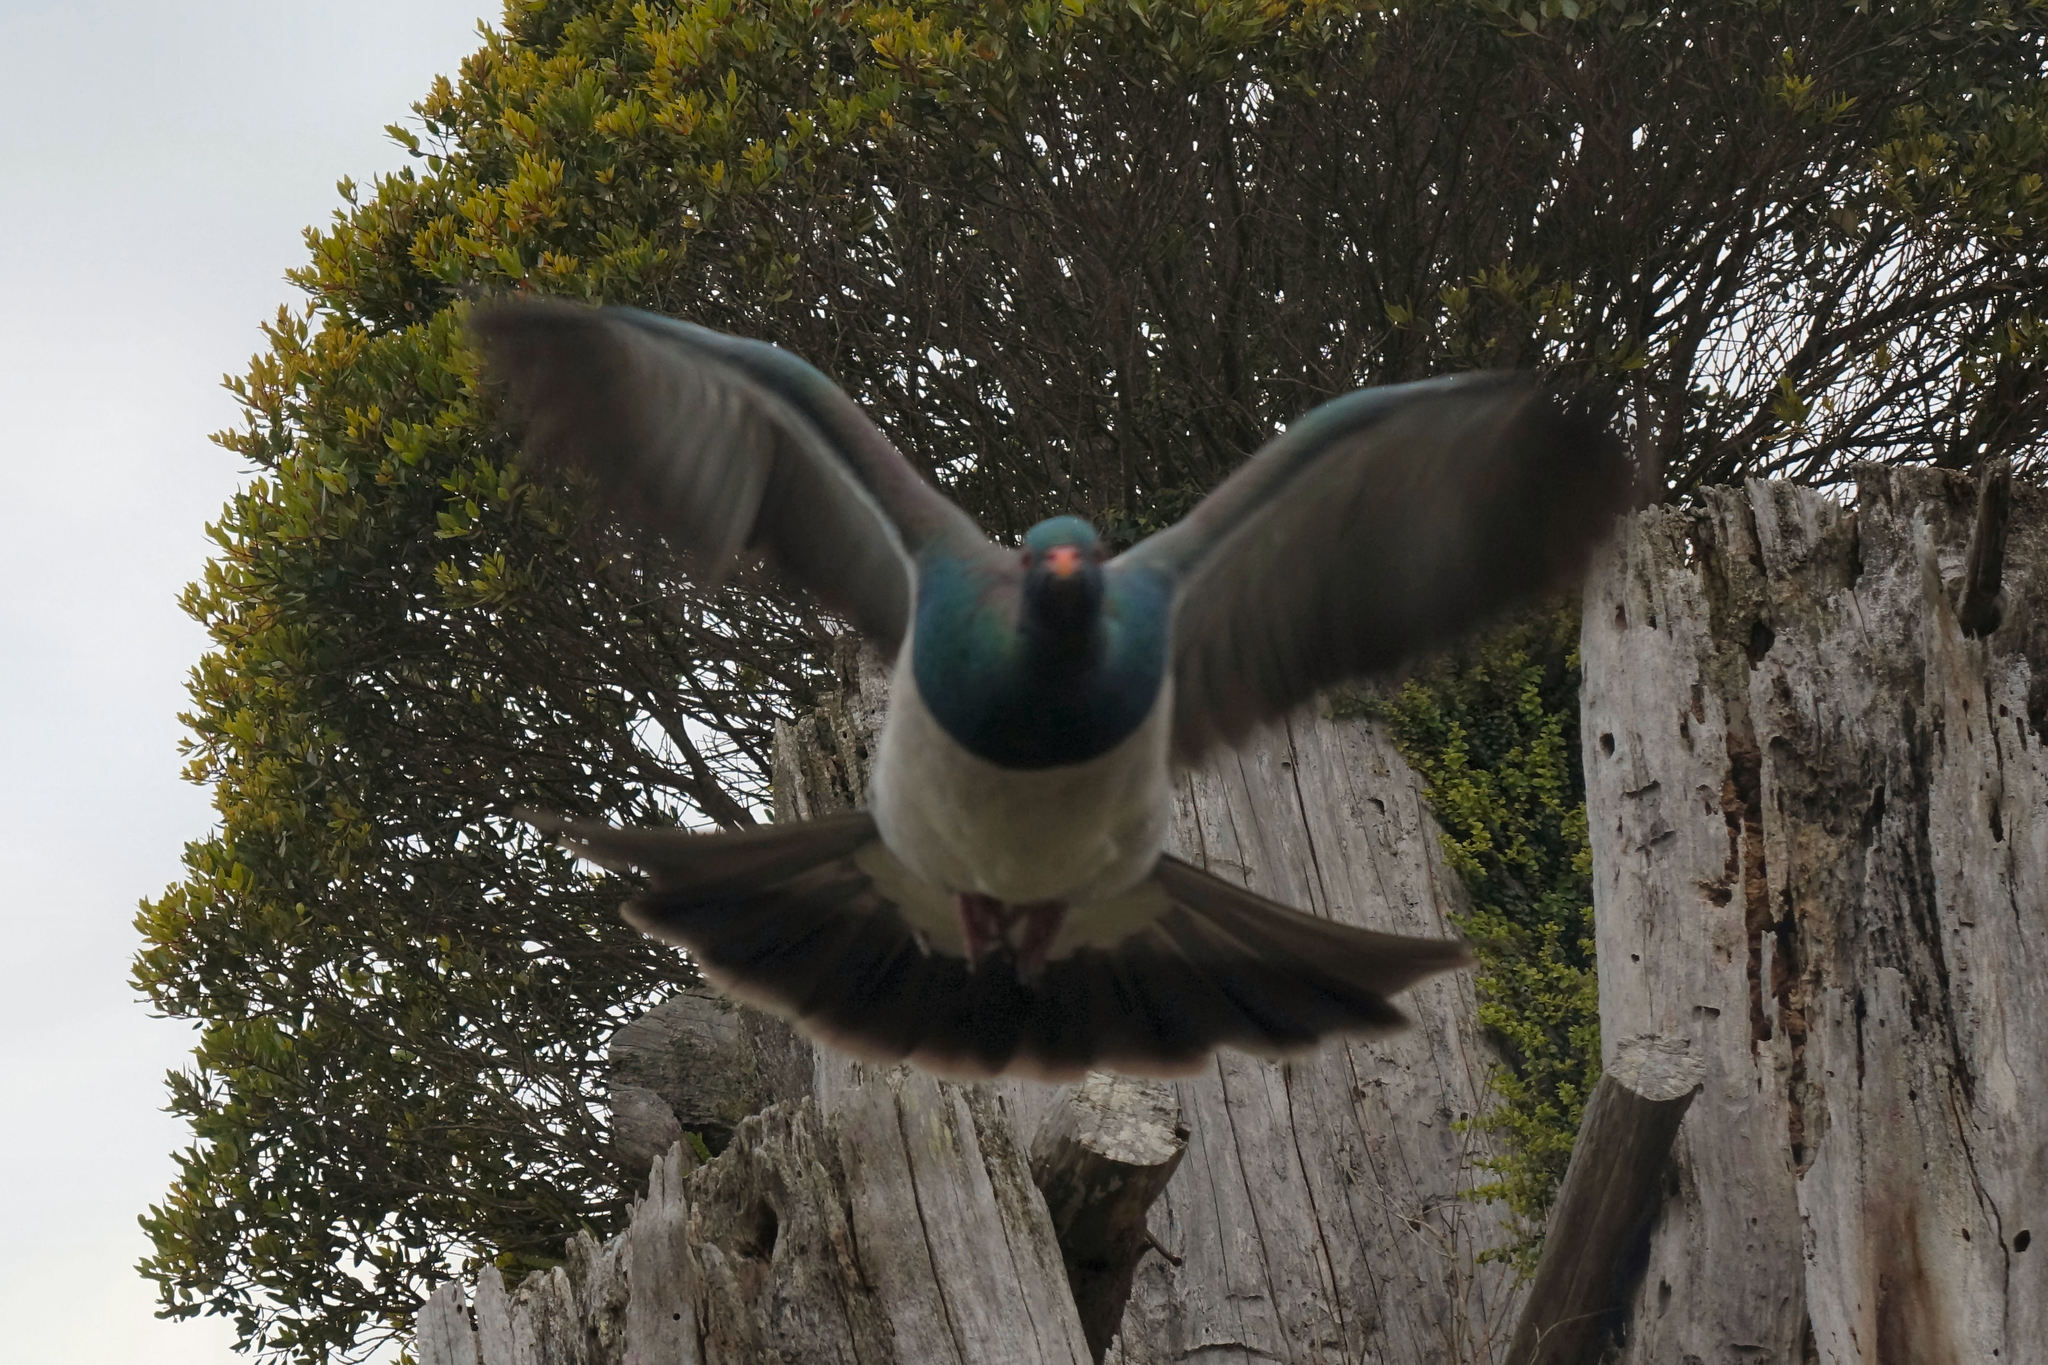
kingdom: Animalia
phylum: Chordata
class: Aves
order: Columbiformes
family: Columbidae
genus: Hemiphaga
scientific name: Hemiphaga novaeseelandiae
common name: New zealand pigeon
